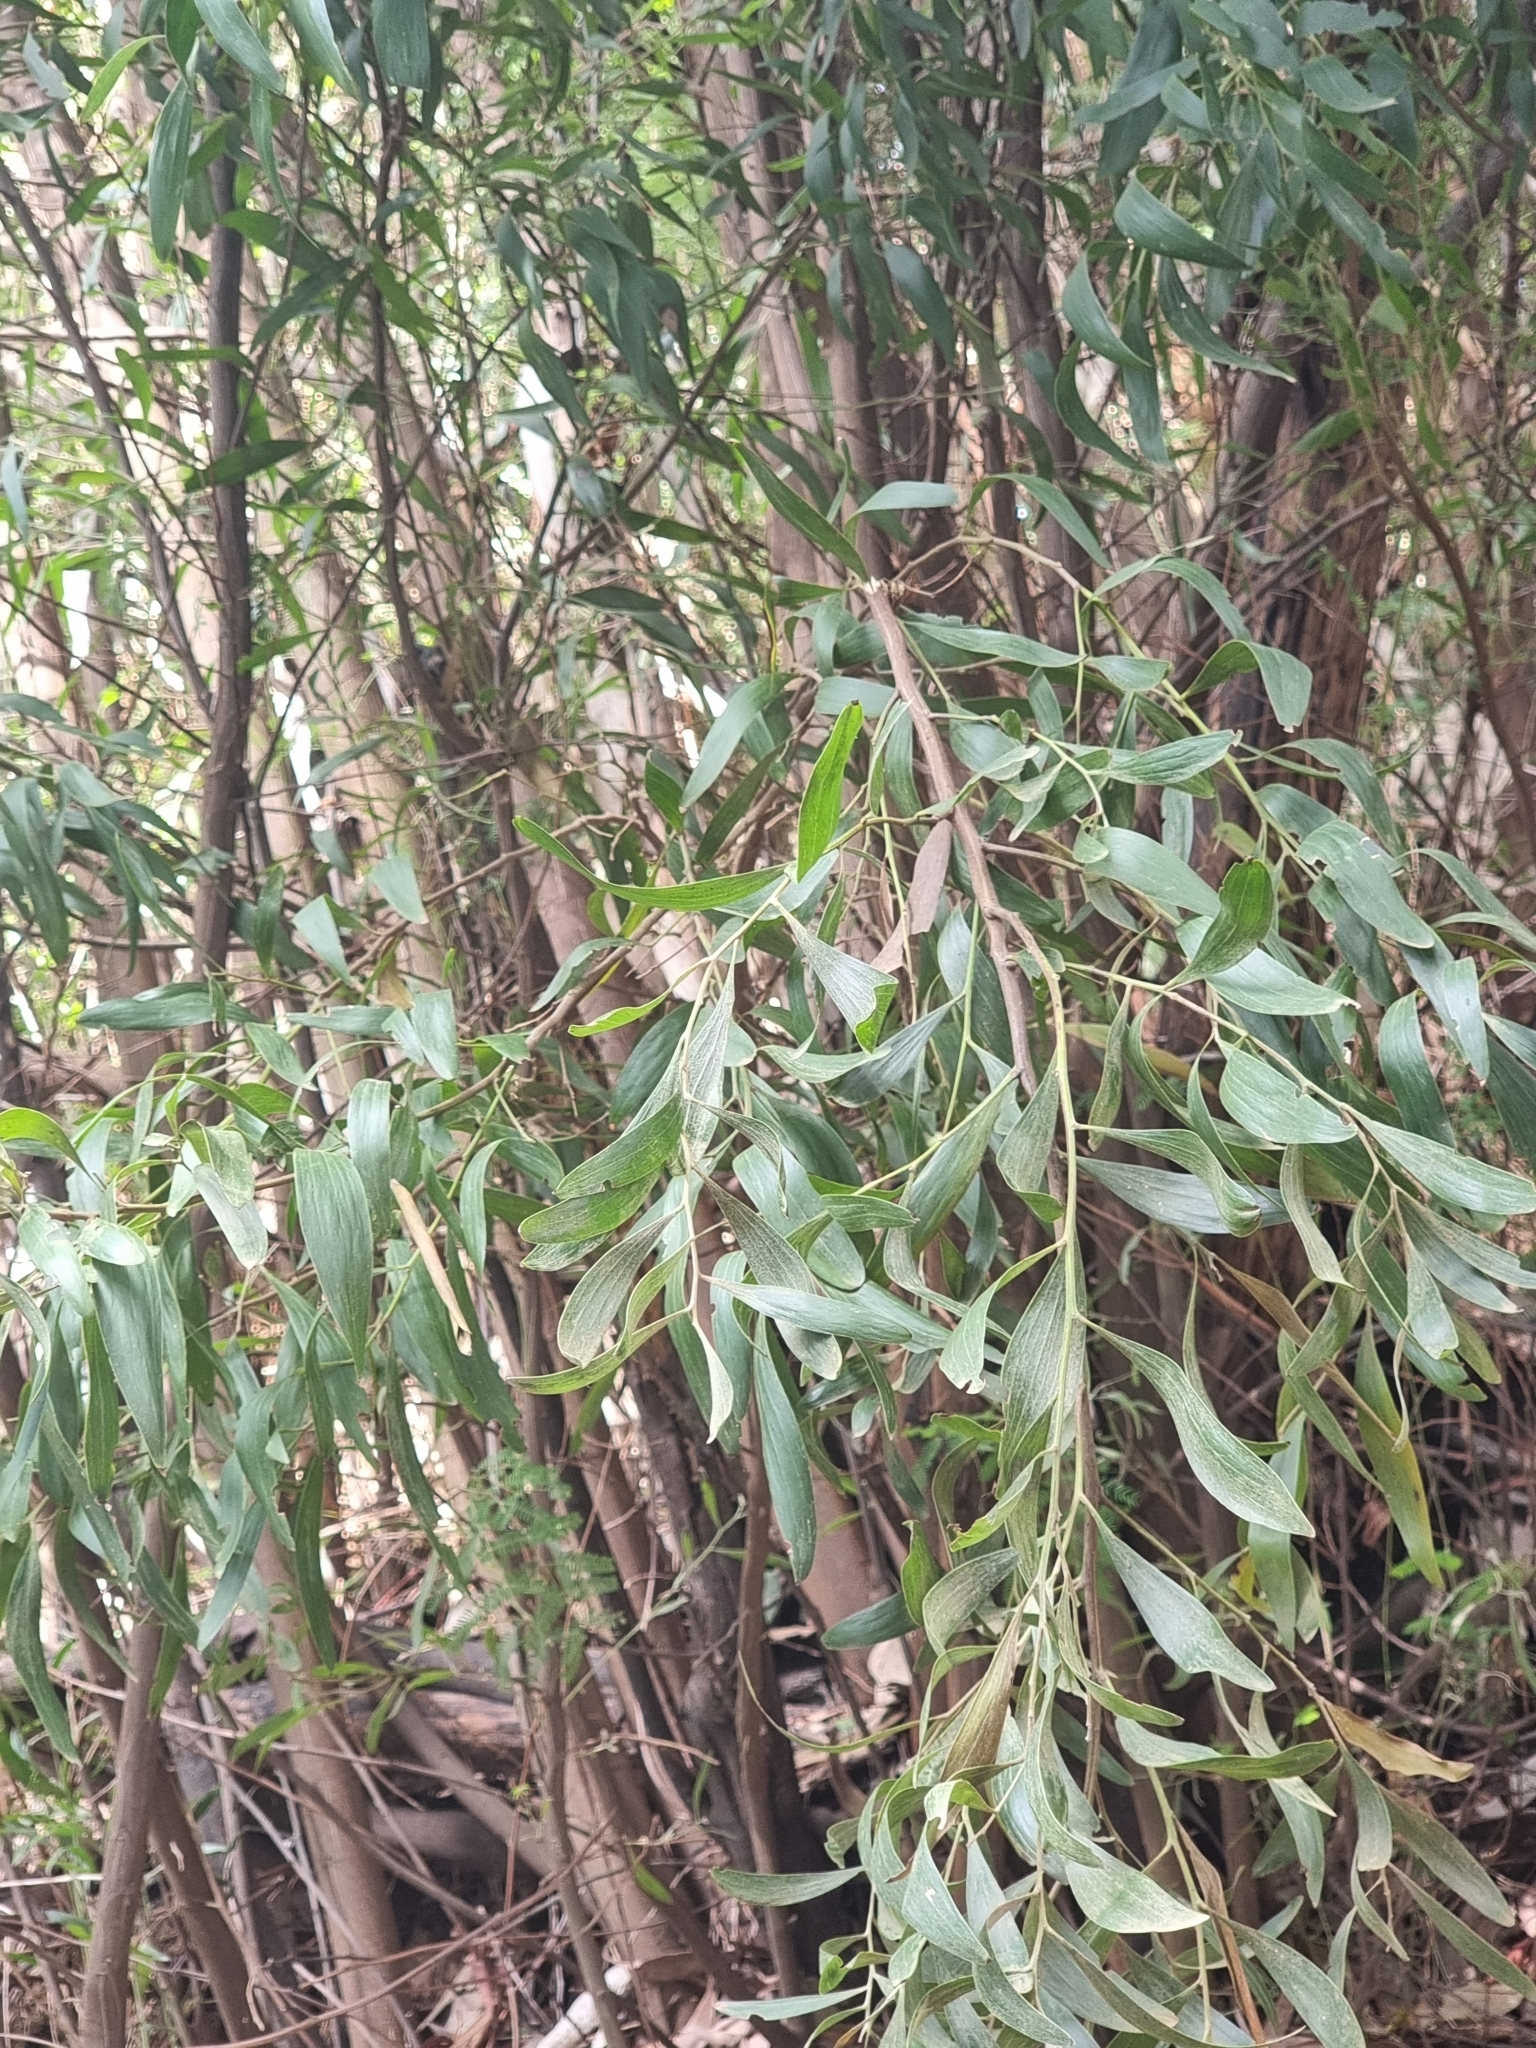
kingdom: Plantae
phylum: Tracheophyta
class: Magnoliopsida
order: Fabales
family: Fabaceae
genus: Acacia
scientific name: Acacia melanoxylon
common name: Blackwood
